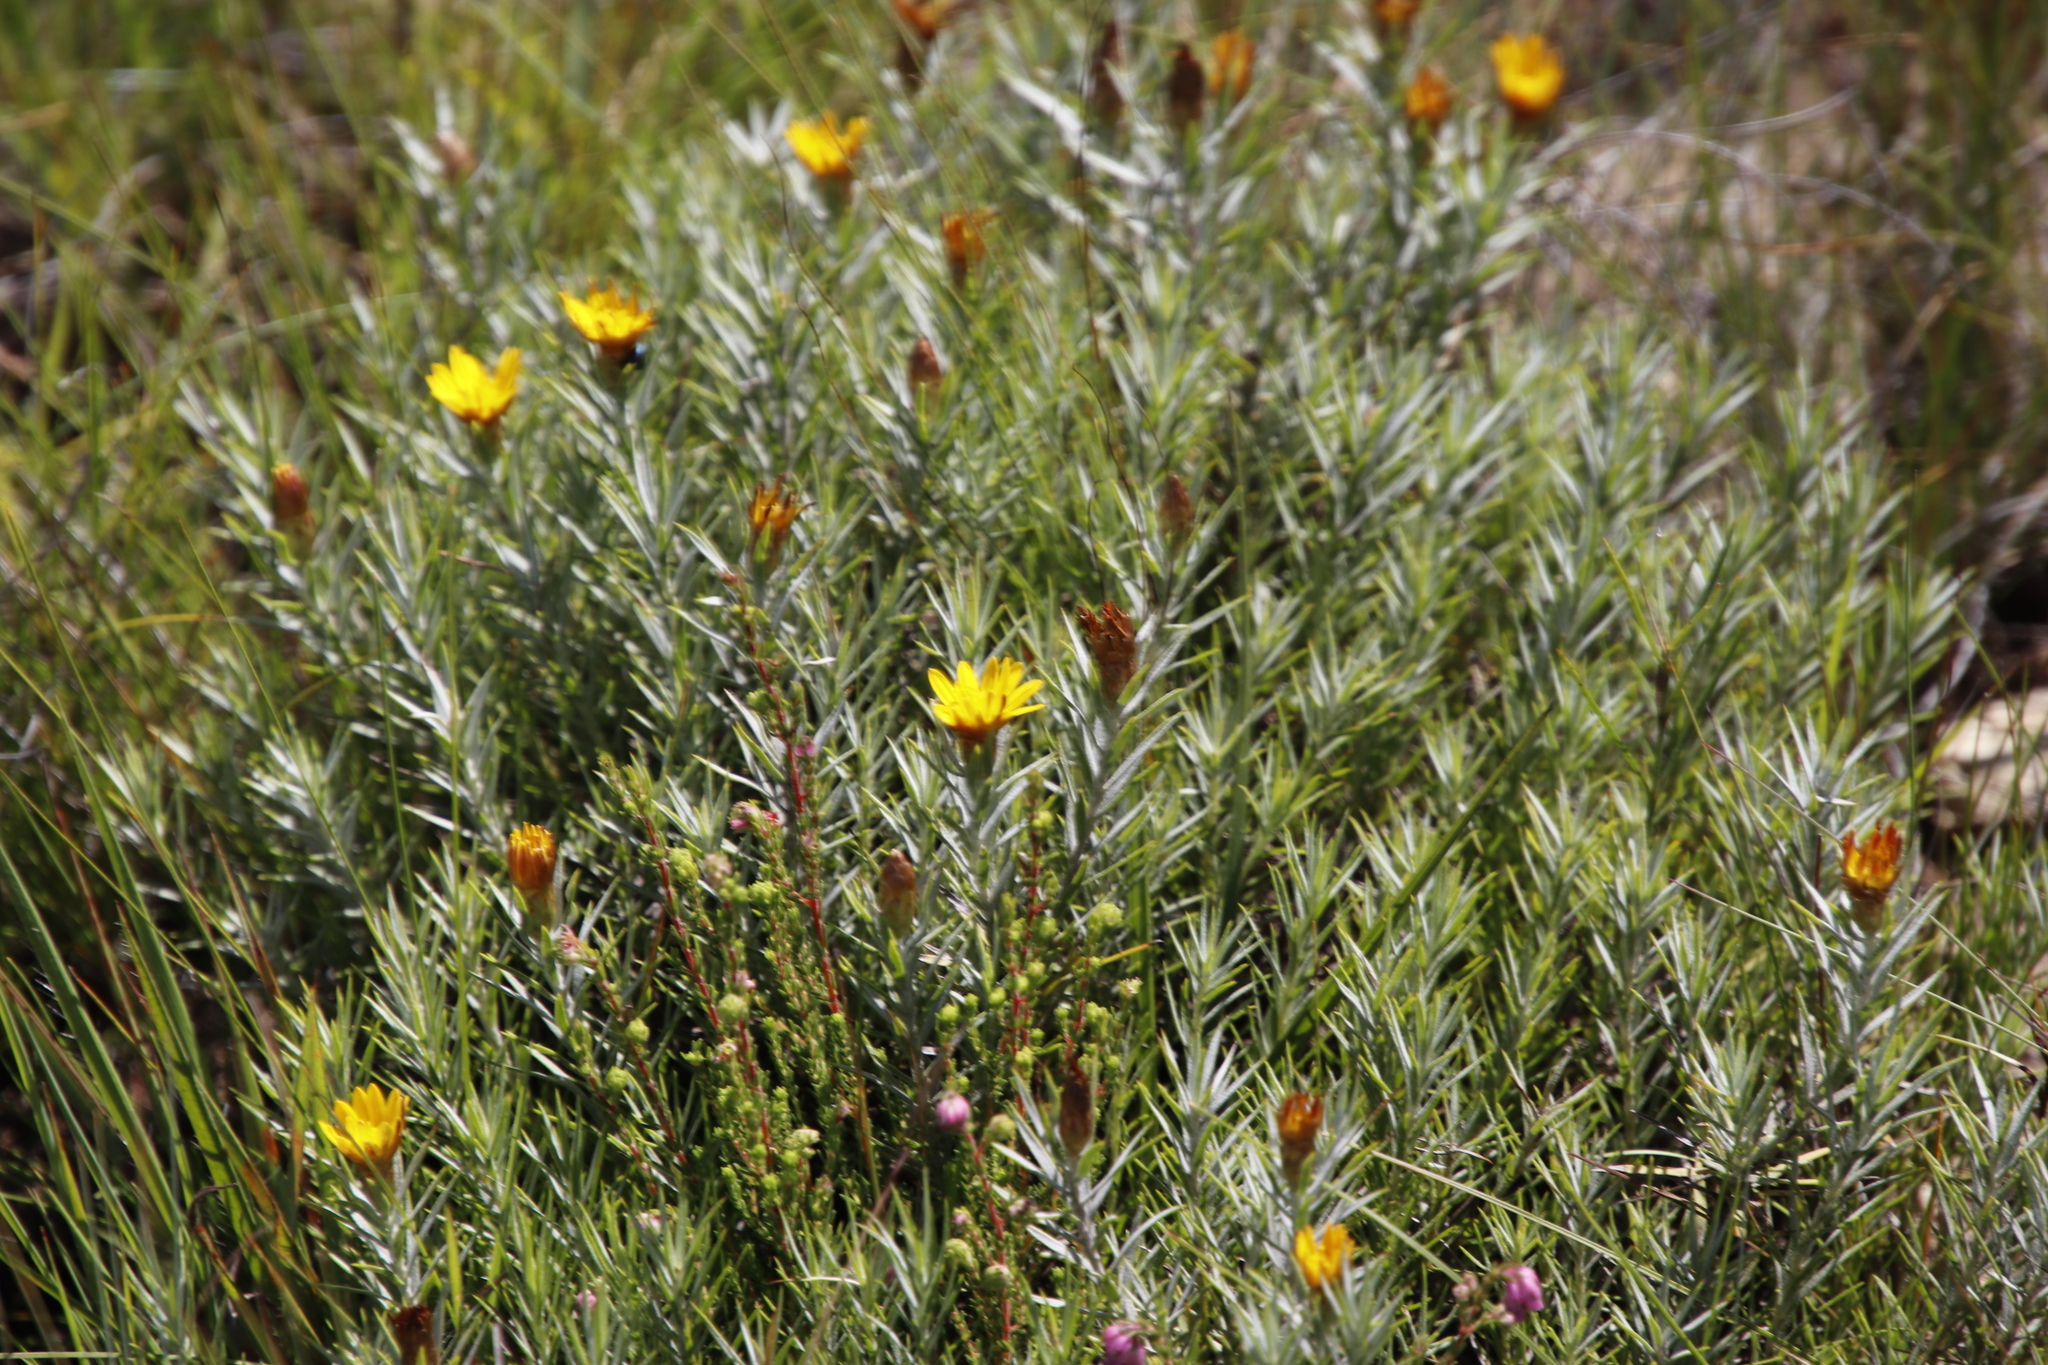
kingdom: Plantae
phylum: Tracheophyta
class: Magnoliopsida
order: Asterales
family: Asteraceae
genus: Oedera
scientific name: Oedera acerosa
